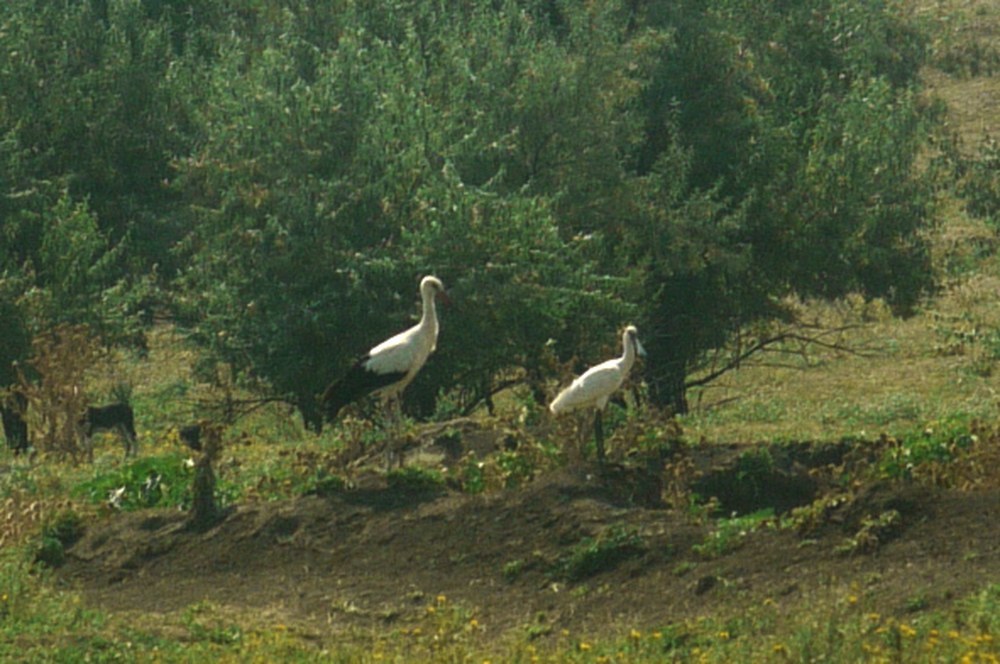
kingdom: Animalia
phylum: Chordata
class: Aves
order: Pelecaniformes
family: Threskiornithidae
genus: Platalea
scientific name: Platalea leucorodia
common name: Eurasian spoonbill
